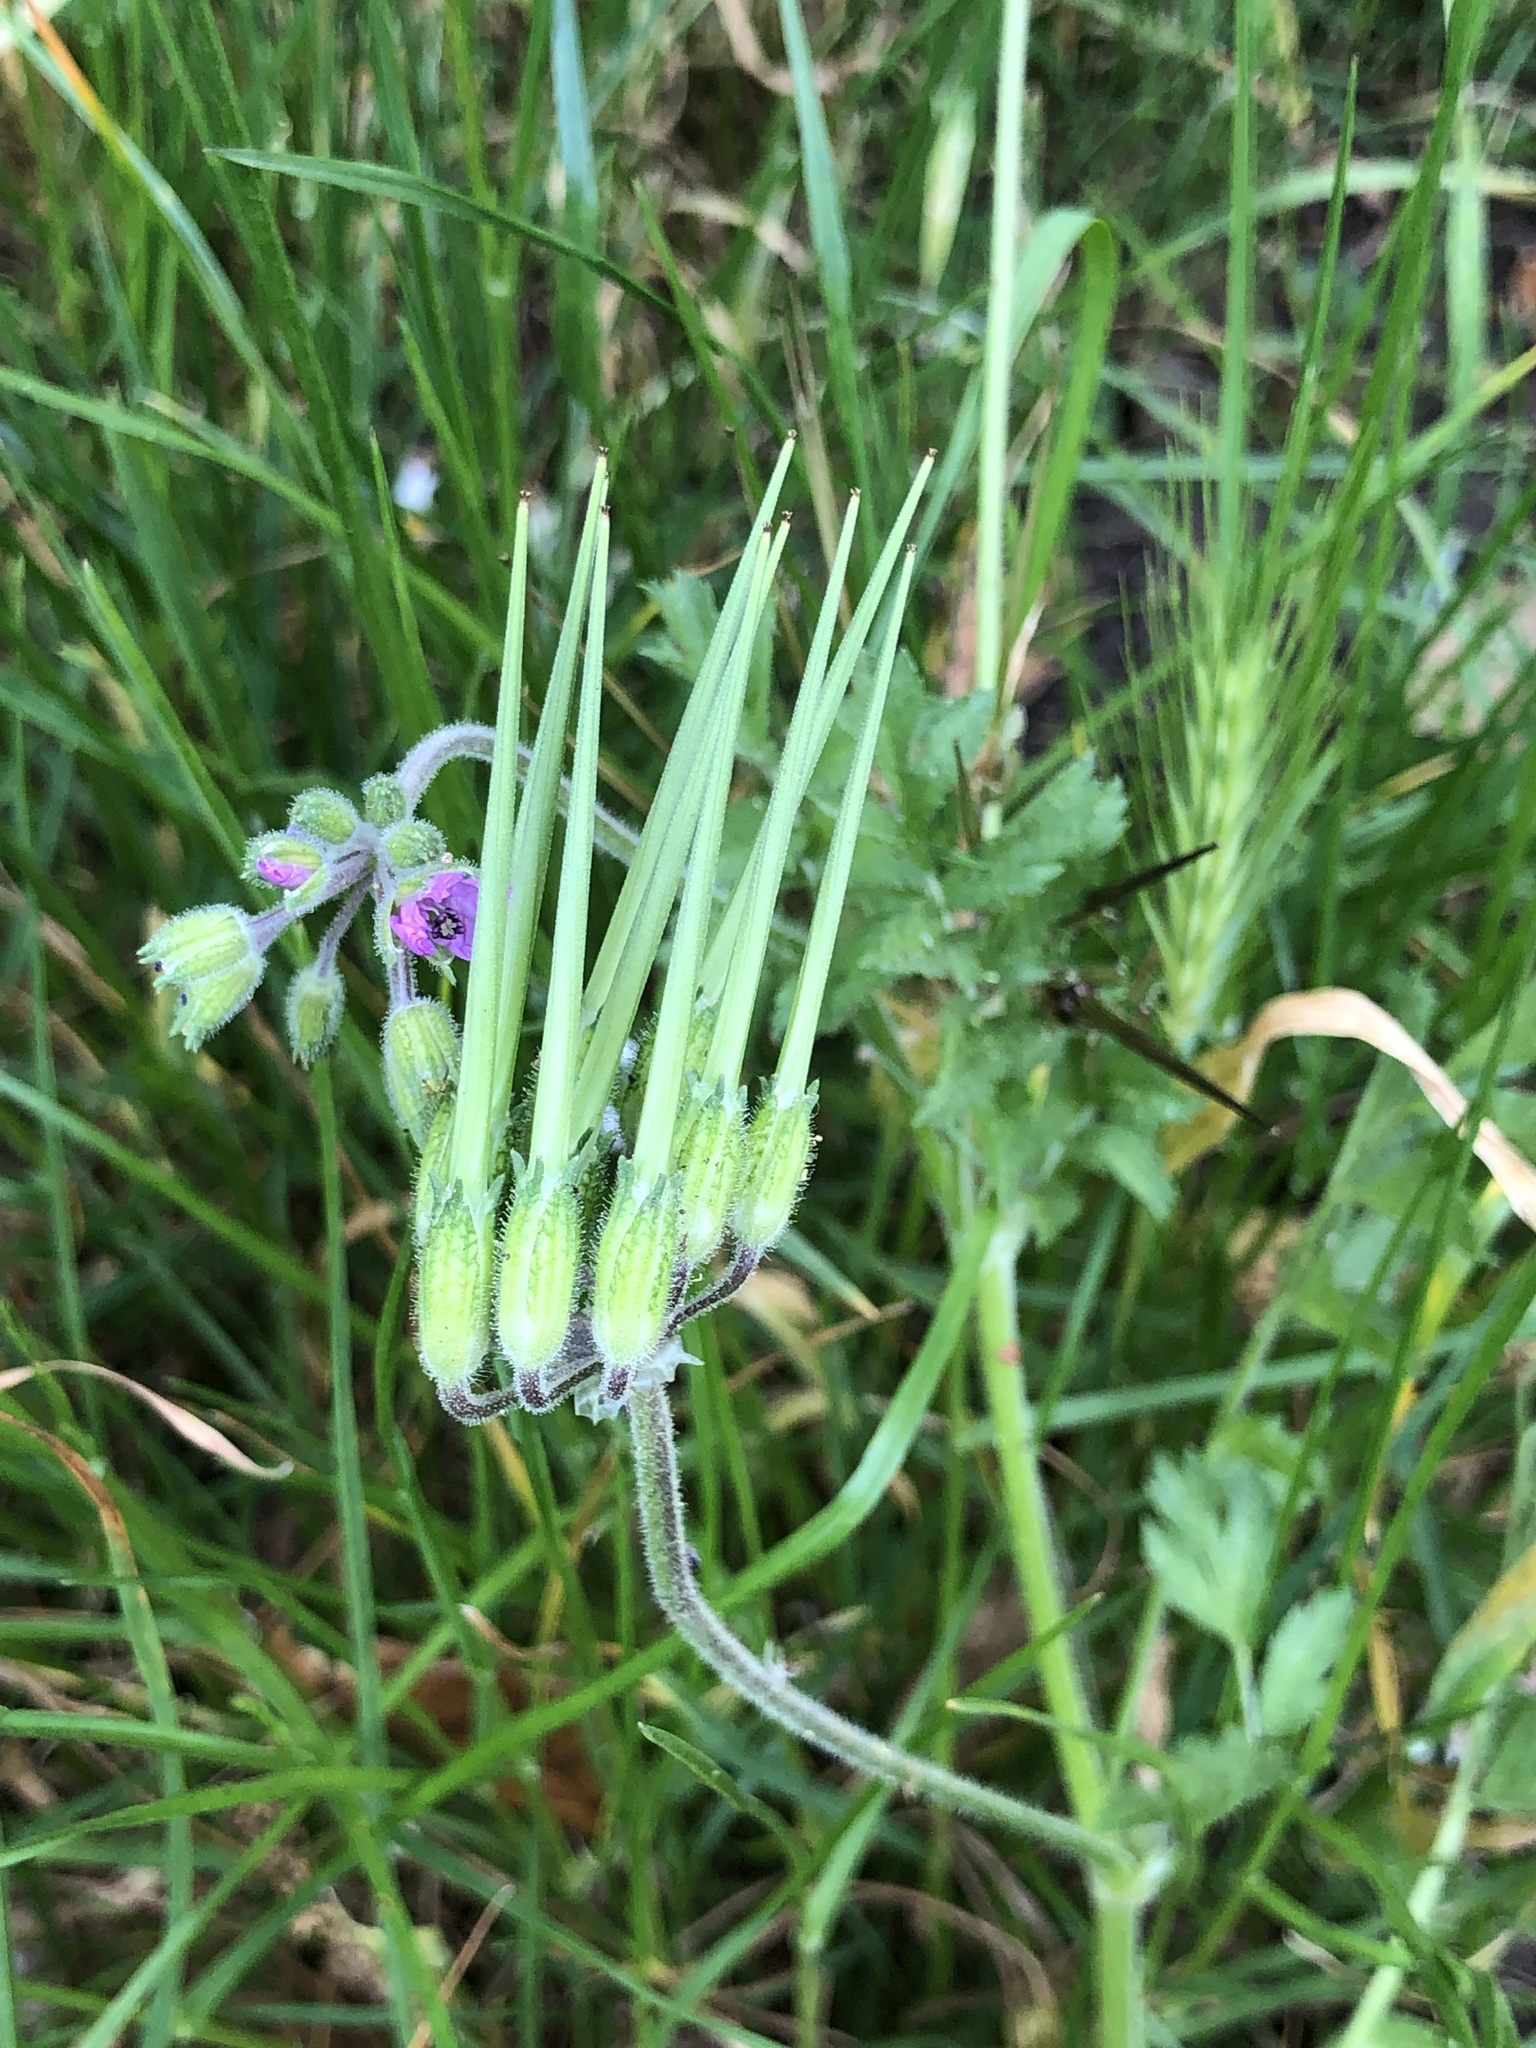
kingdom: Plantae
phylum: Tracheophyta
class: Magnoliopsida
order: Geraniales
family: Geraniaceae
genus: Erodium
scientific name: Erodium moschatum
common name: Musk stork's-bill
